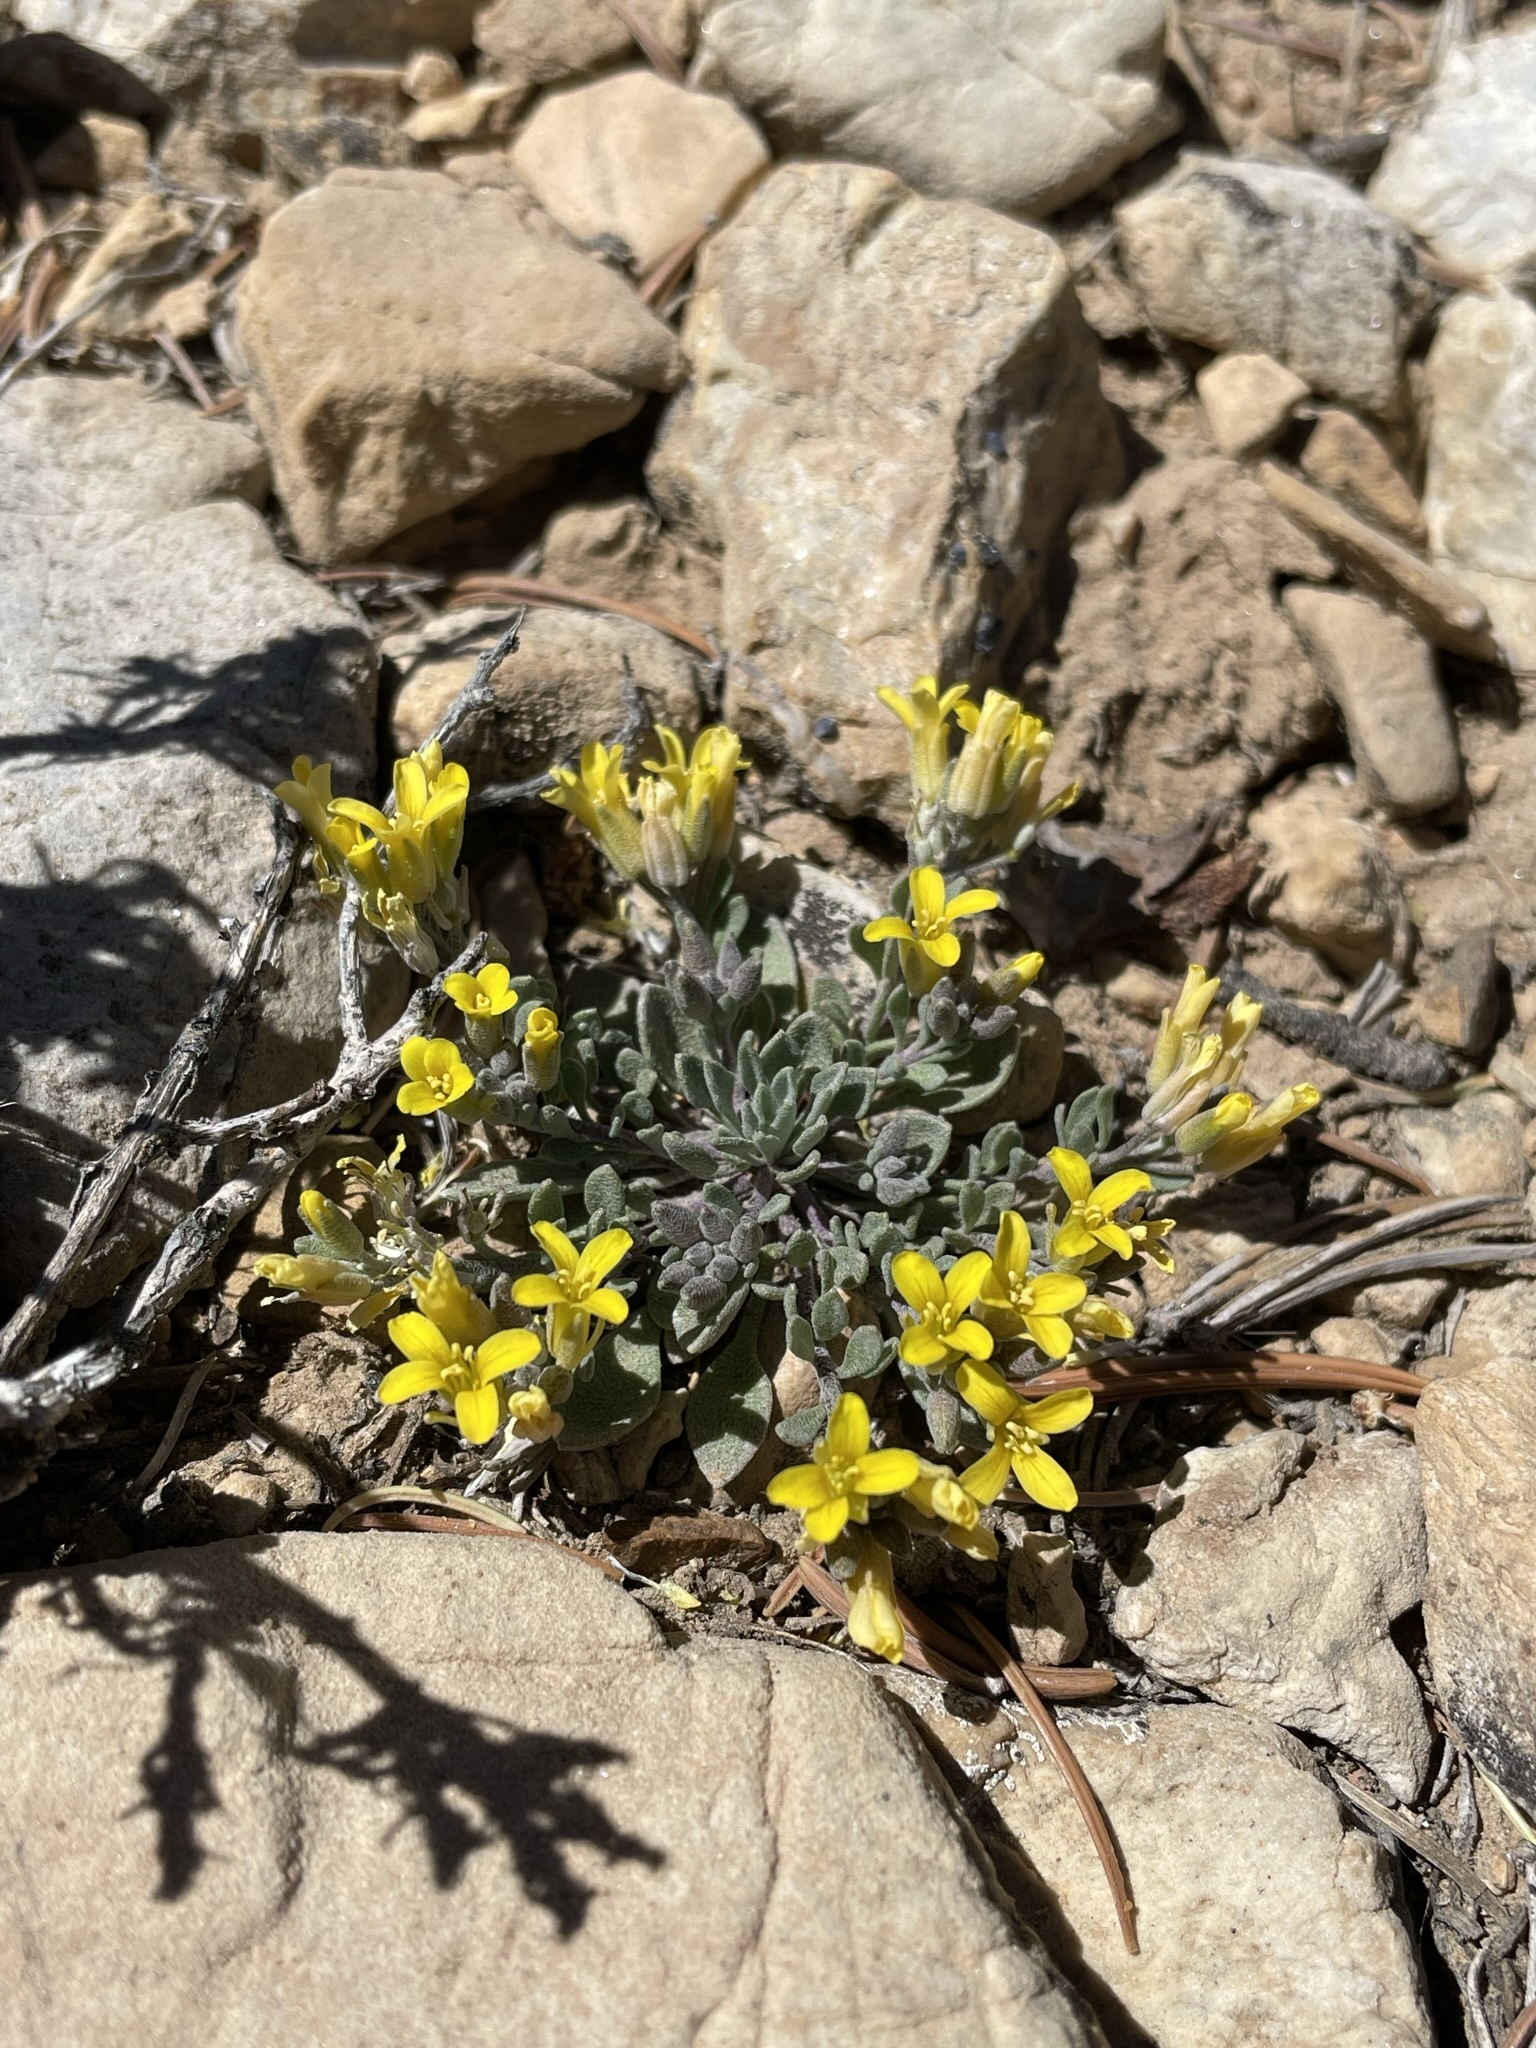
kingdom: Plantae
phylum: Tracheophyta
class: Magnoliopsida
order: Brassicales
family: Brassicaceae
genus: Physaria
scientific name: Physaria kingii
